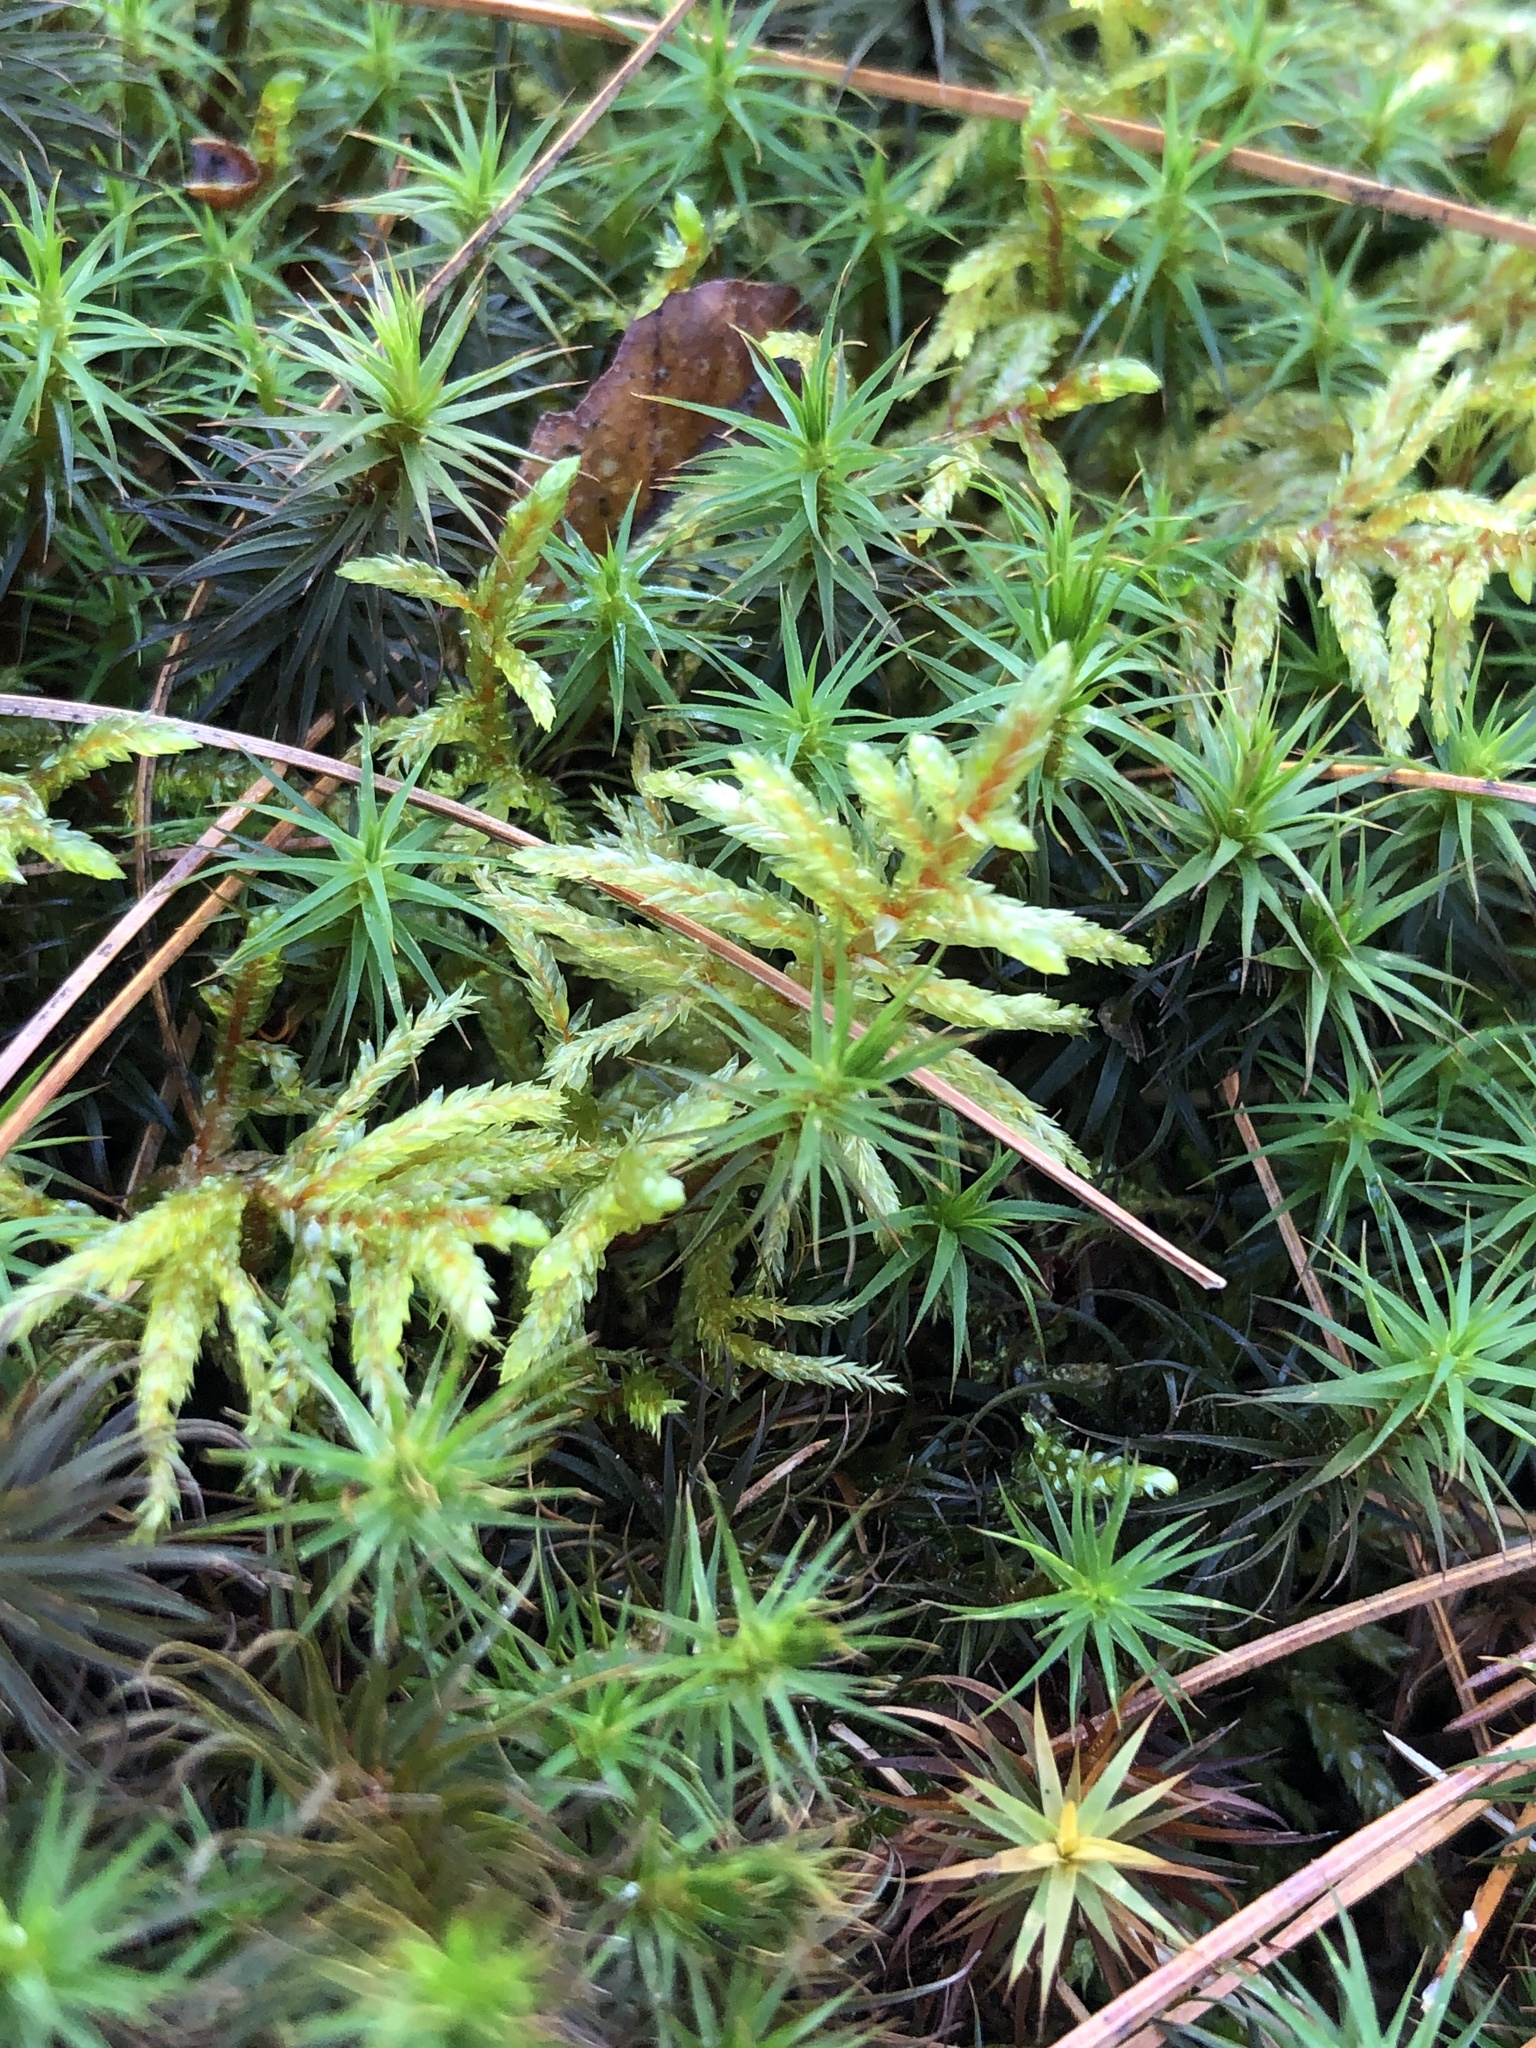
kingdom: Plantae
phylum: Bryophyta
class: Bryopsida
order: Hypnales
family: Hylocomiaceae
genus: Pleurozium
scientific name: Pleurozium schreberi
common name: Red-stemmed feather moss
